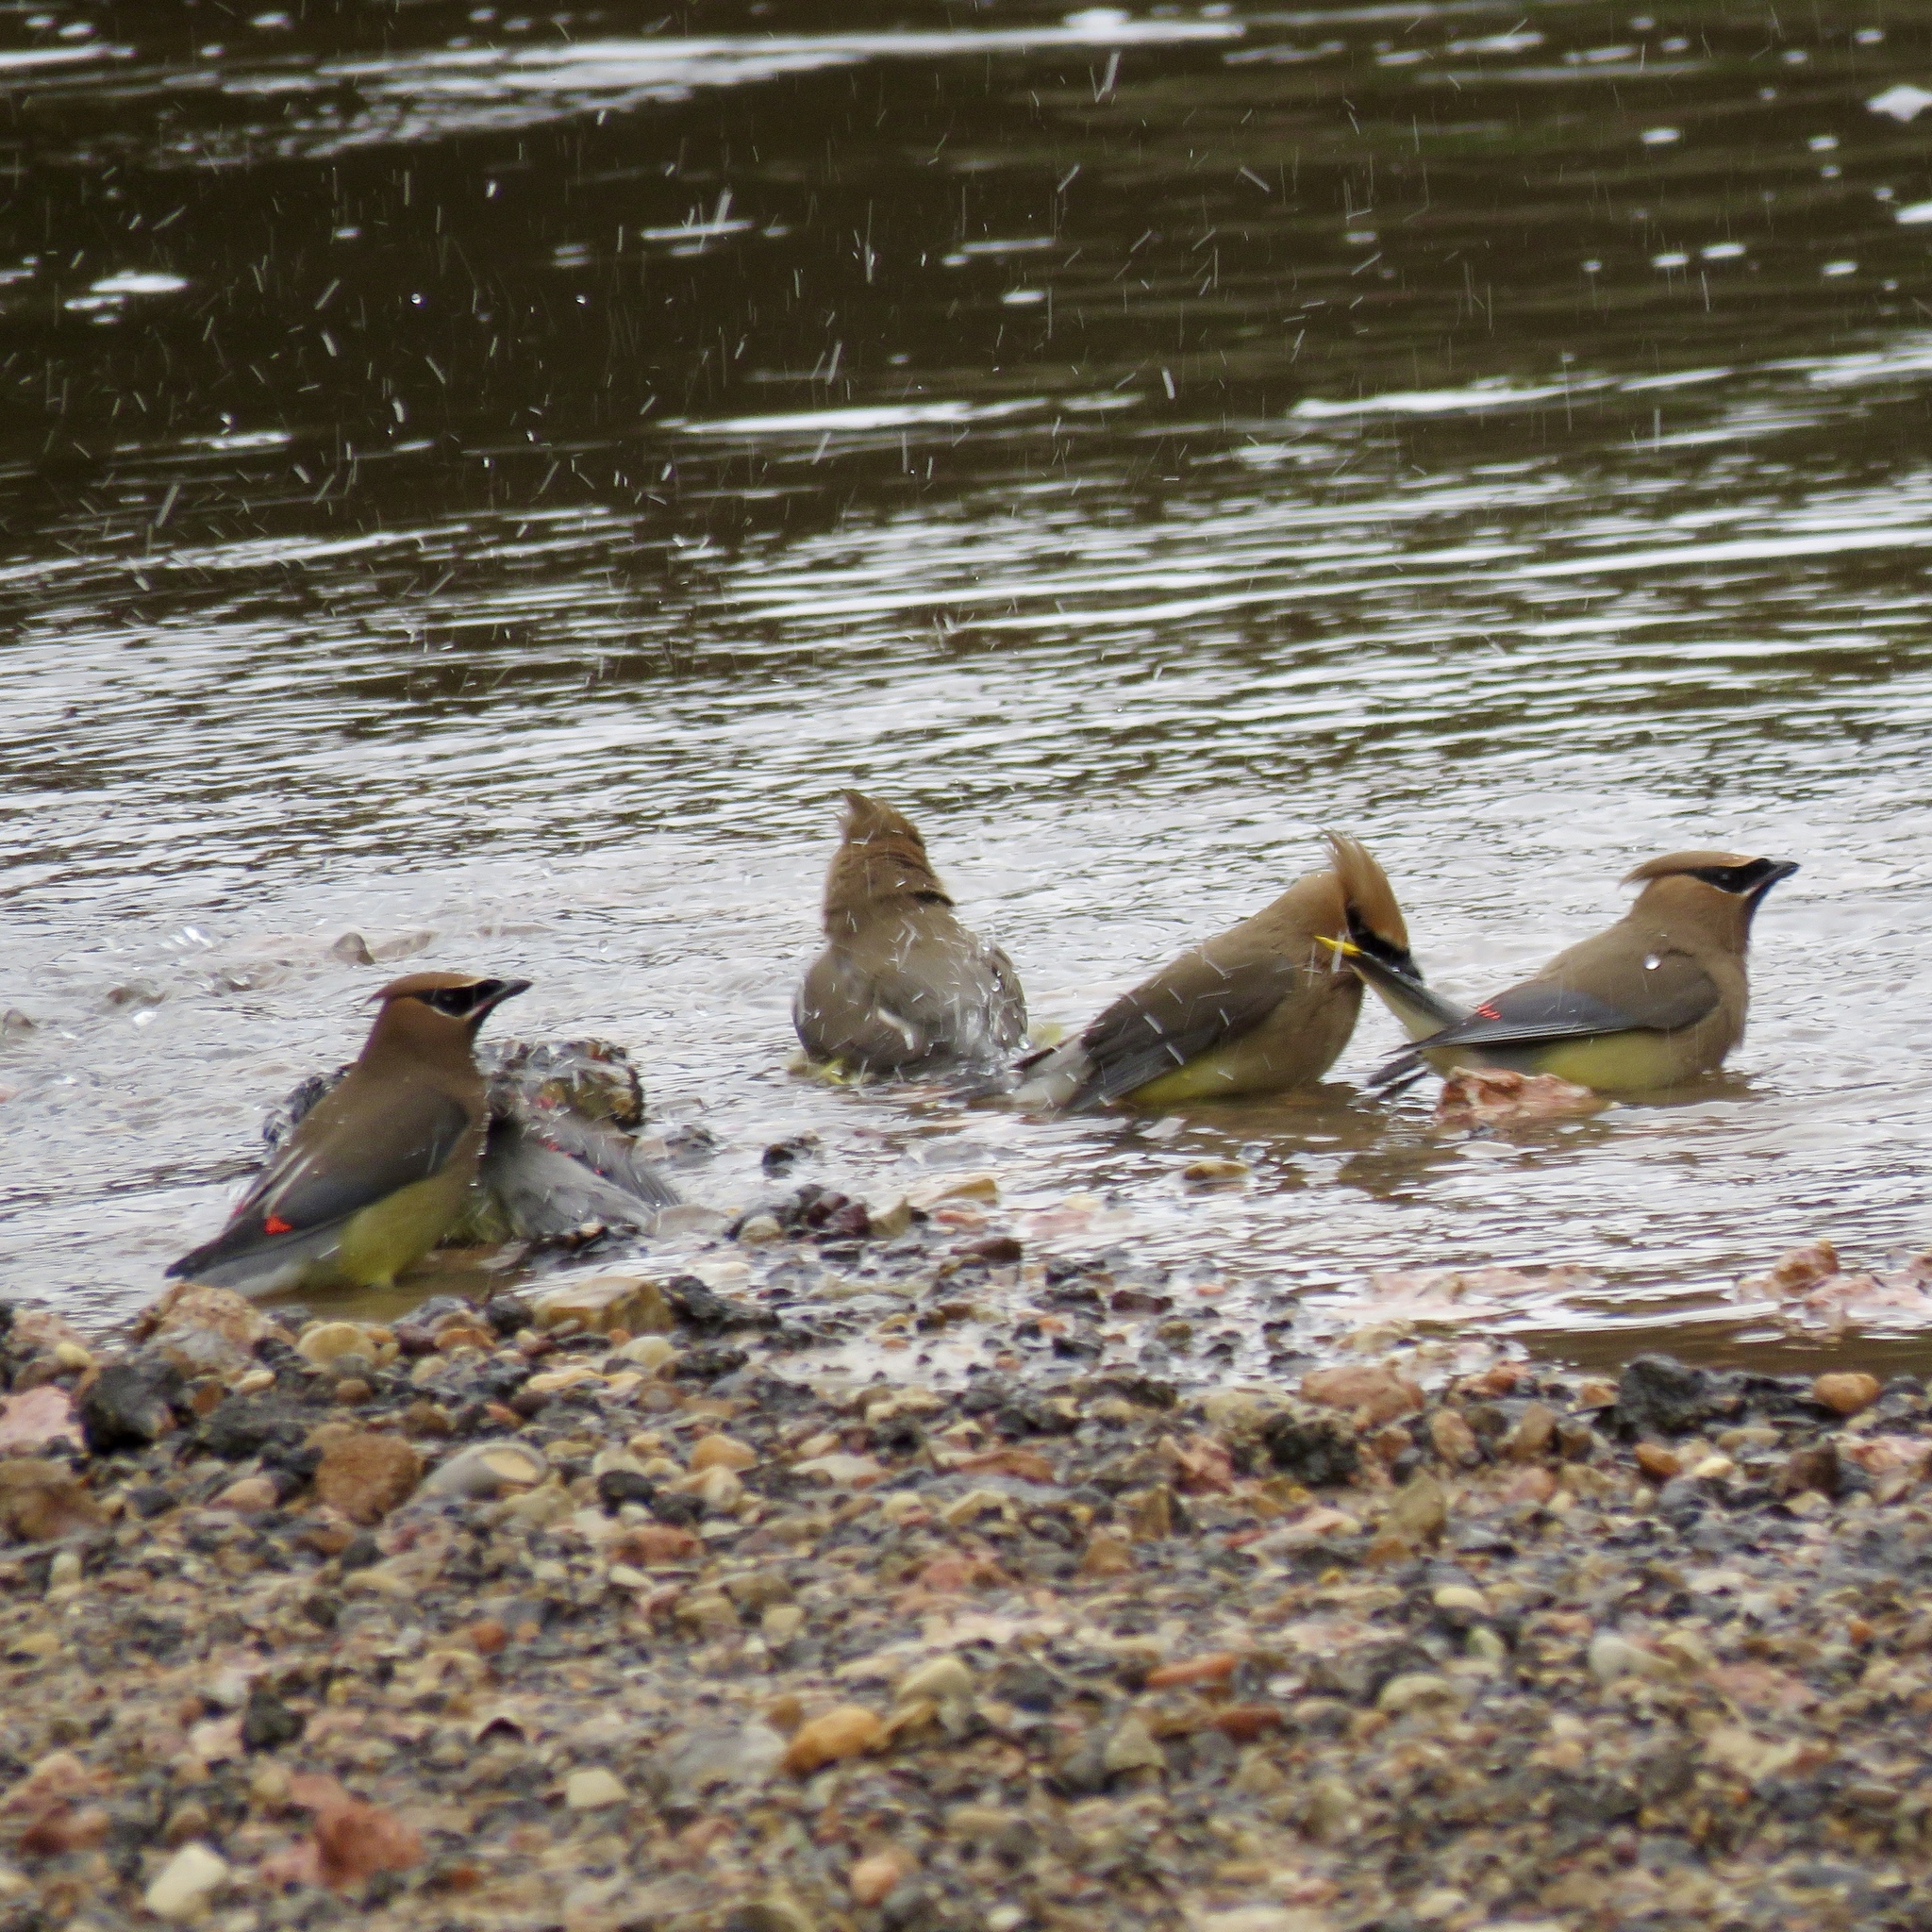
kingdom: Animalia
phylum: Chordata
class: Aves
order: Passeriformes
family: Bombycillidae
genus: Bombycilla
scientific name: Bombycilla cedrorum
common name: Cedar waxwing
